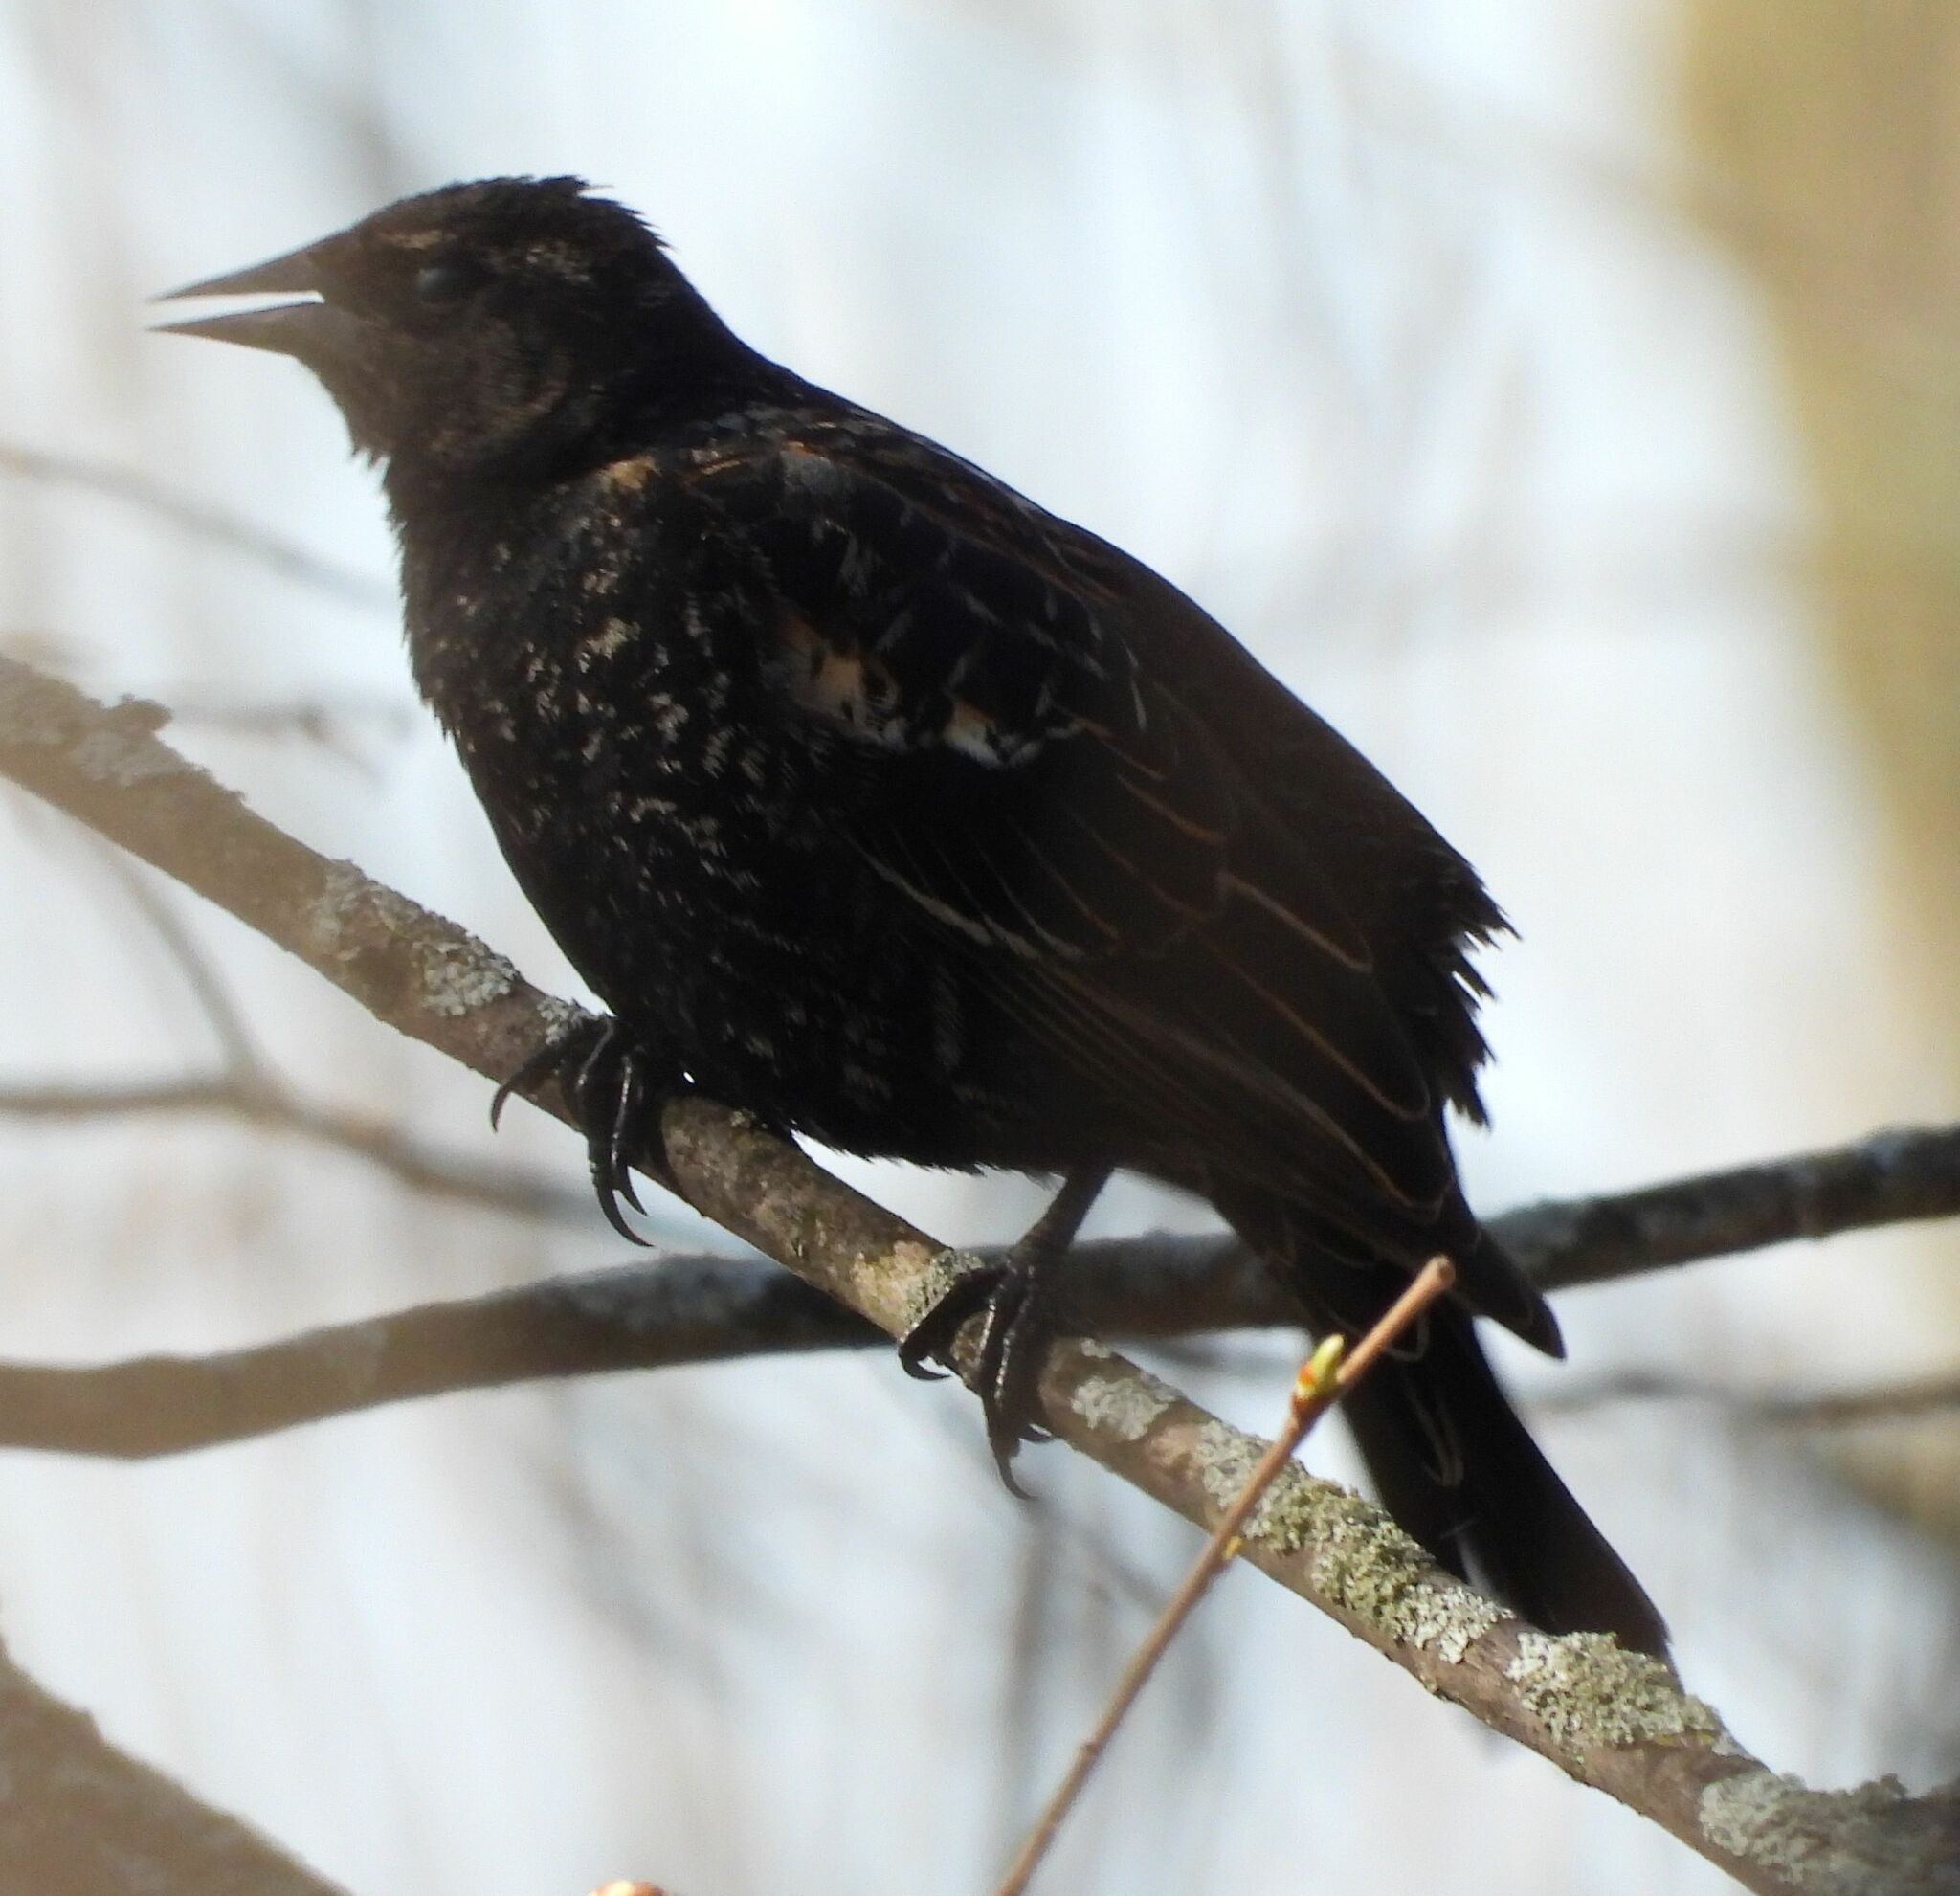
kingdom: Animalia
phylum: Chordata
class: Aves
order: Passeriformes
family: Icteridae
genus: Agelaius
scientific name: Agelaius phoeniceus
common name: Red-winged blackbird
